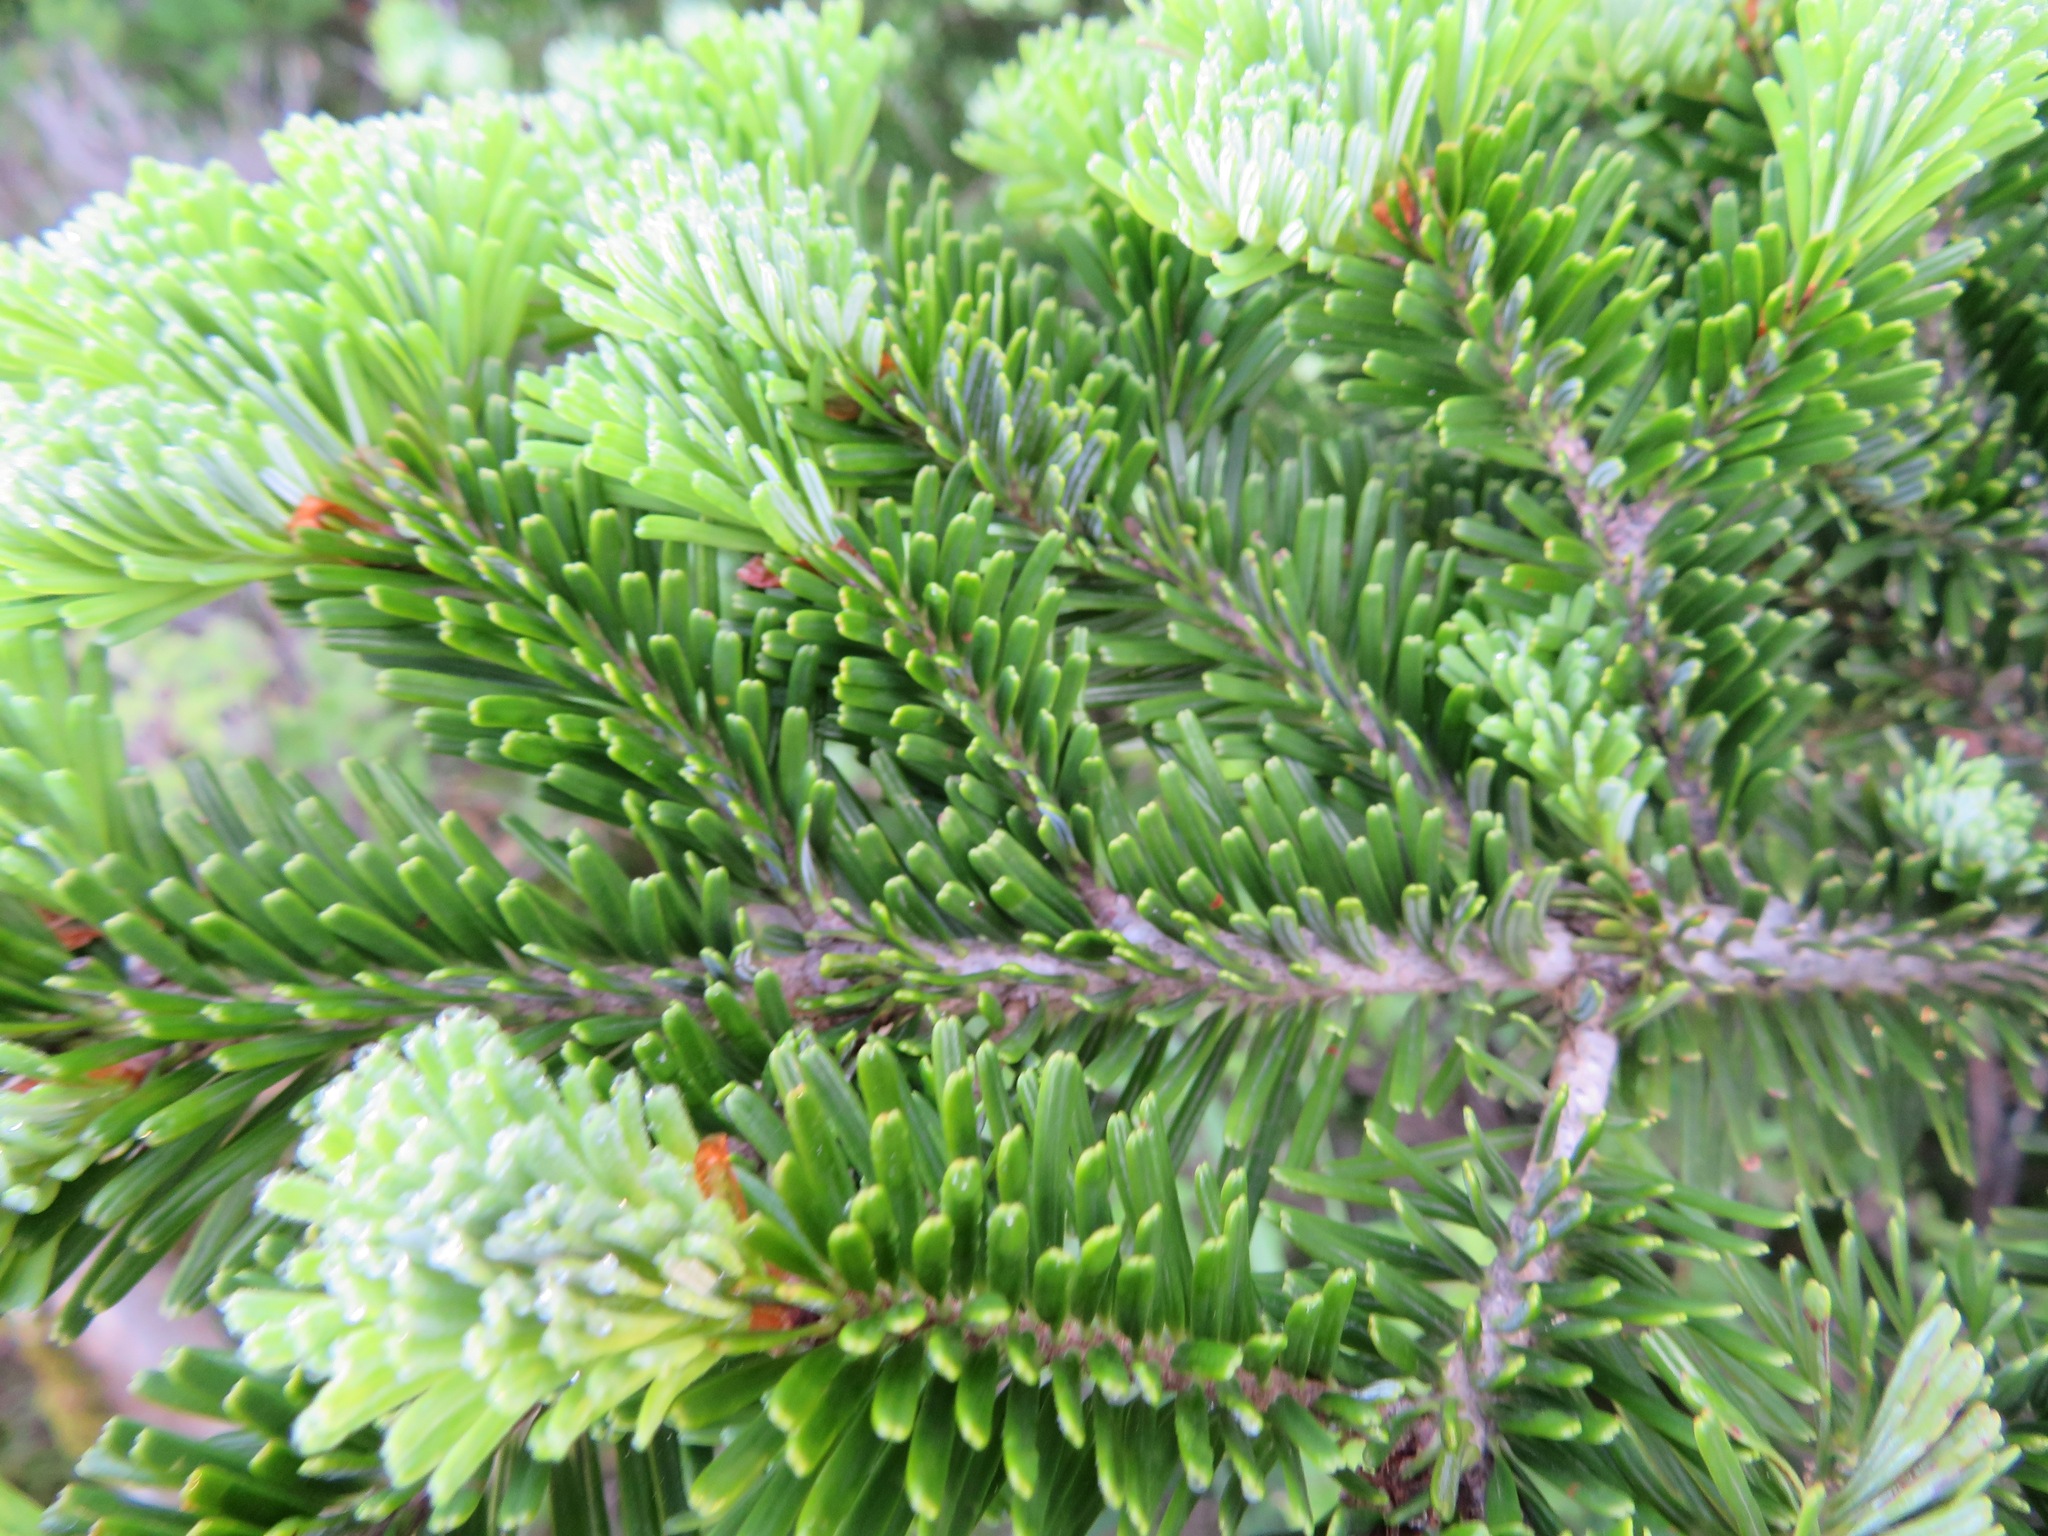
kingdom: Plantae
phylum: Tracheophyta
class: Pinopsida
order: Pinales
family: Pinaceae
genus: Abies
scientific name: Abies mariesii
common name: Marie's fir
